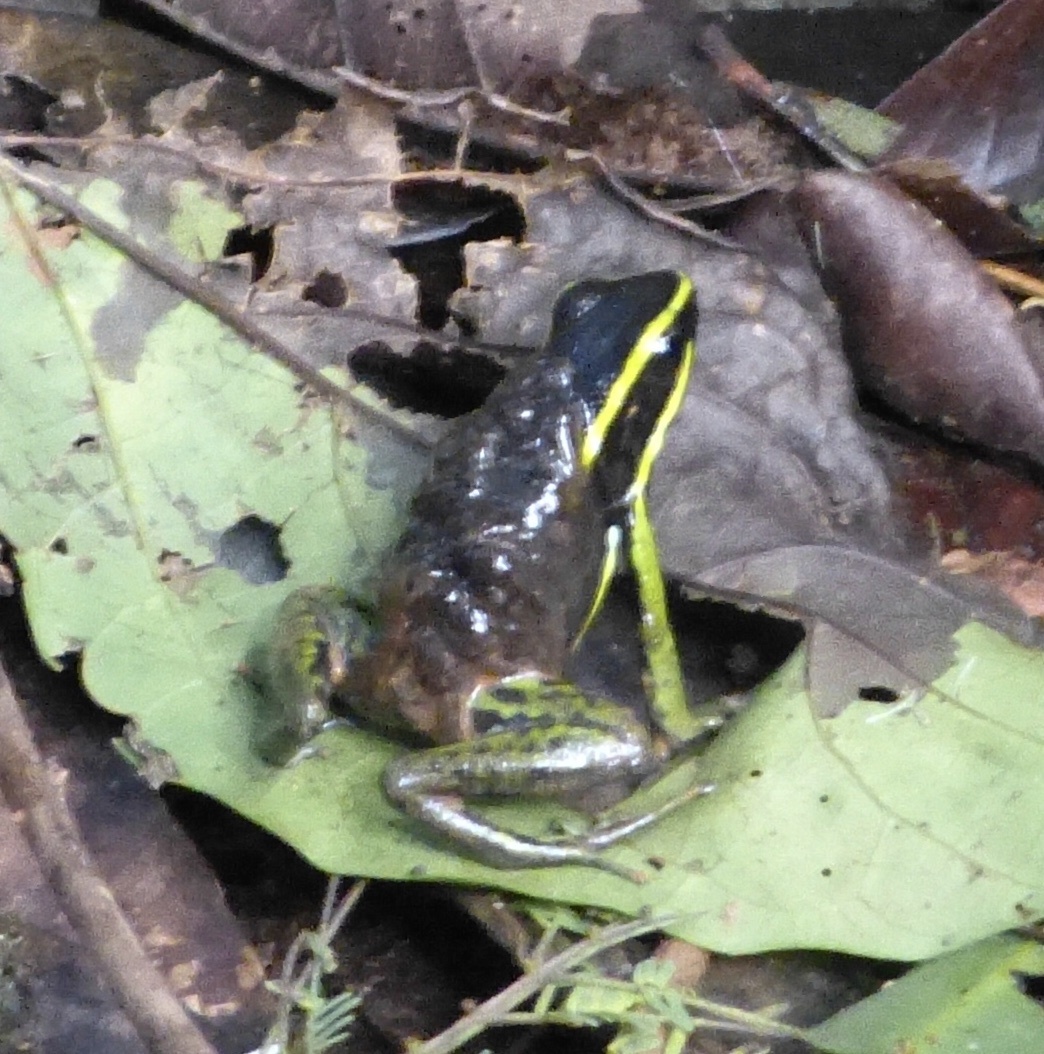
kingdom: Animalia
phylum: Chordata
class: Amphibia
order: Anura
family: Dendrobatidae
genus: Ameerega
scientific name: Ameerega trivittata
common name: Three-striped arrow-poison frog
